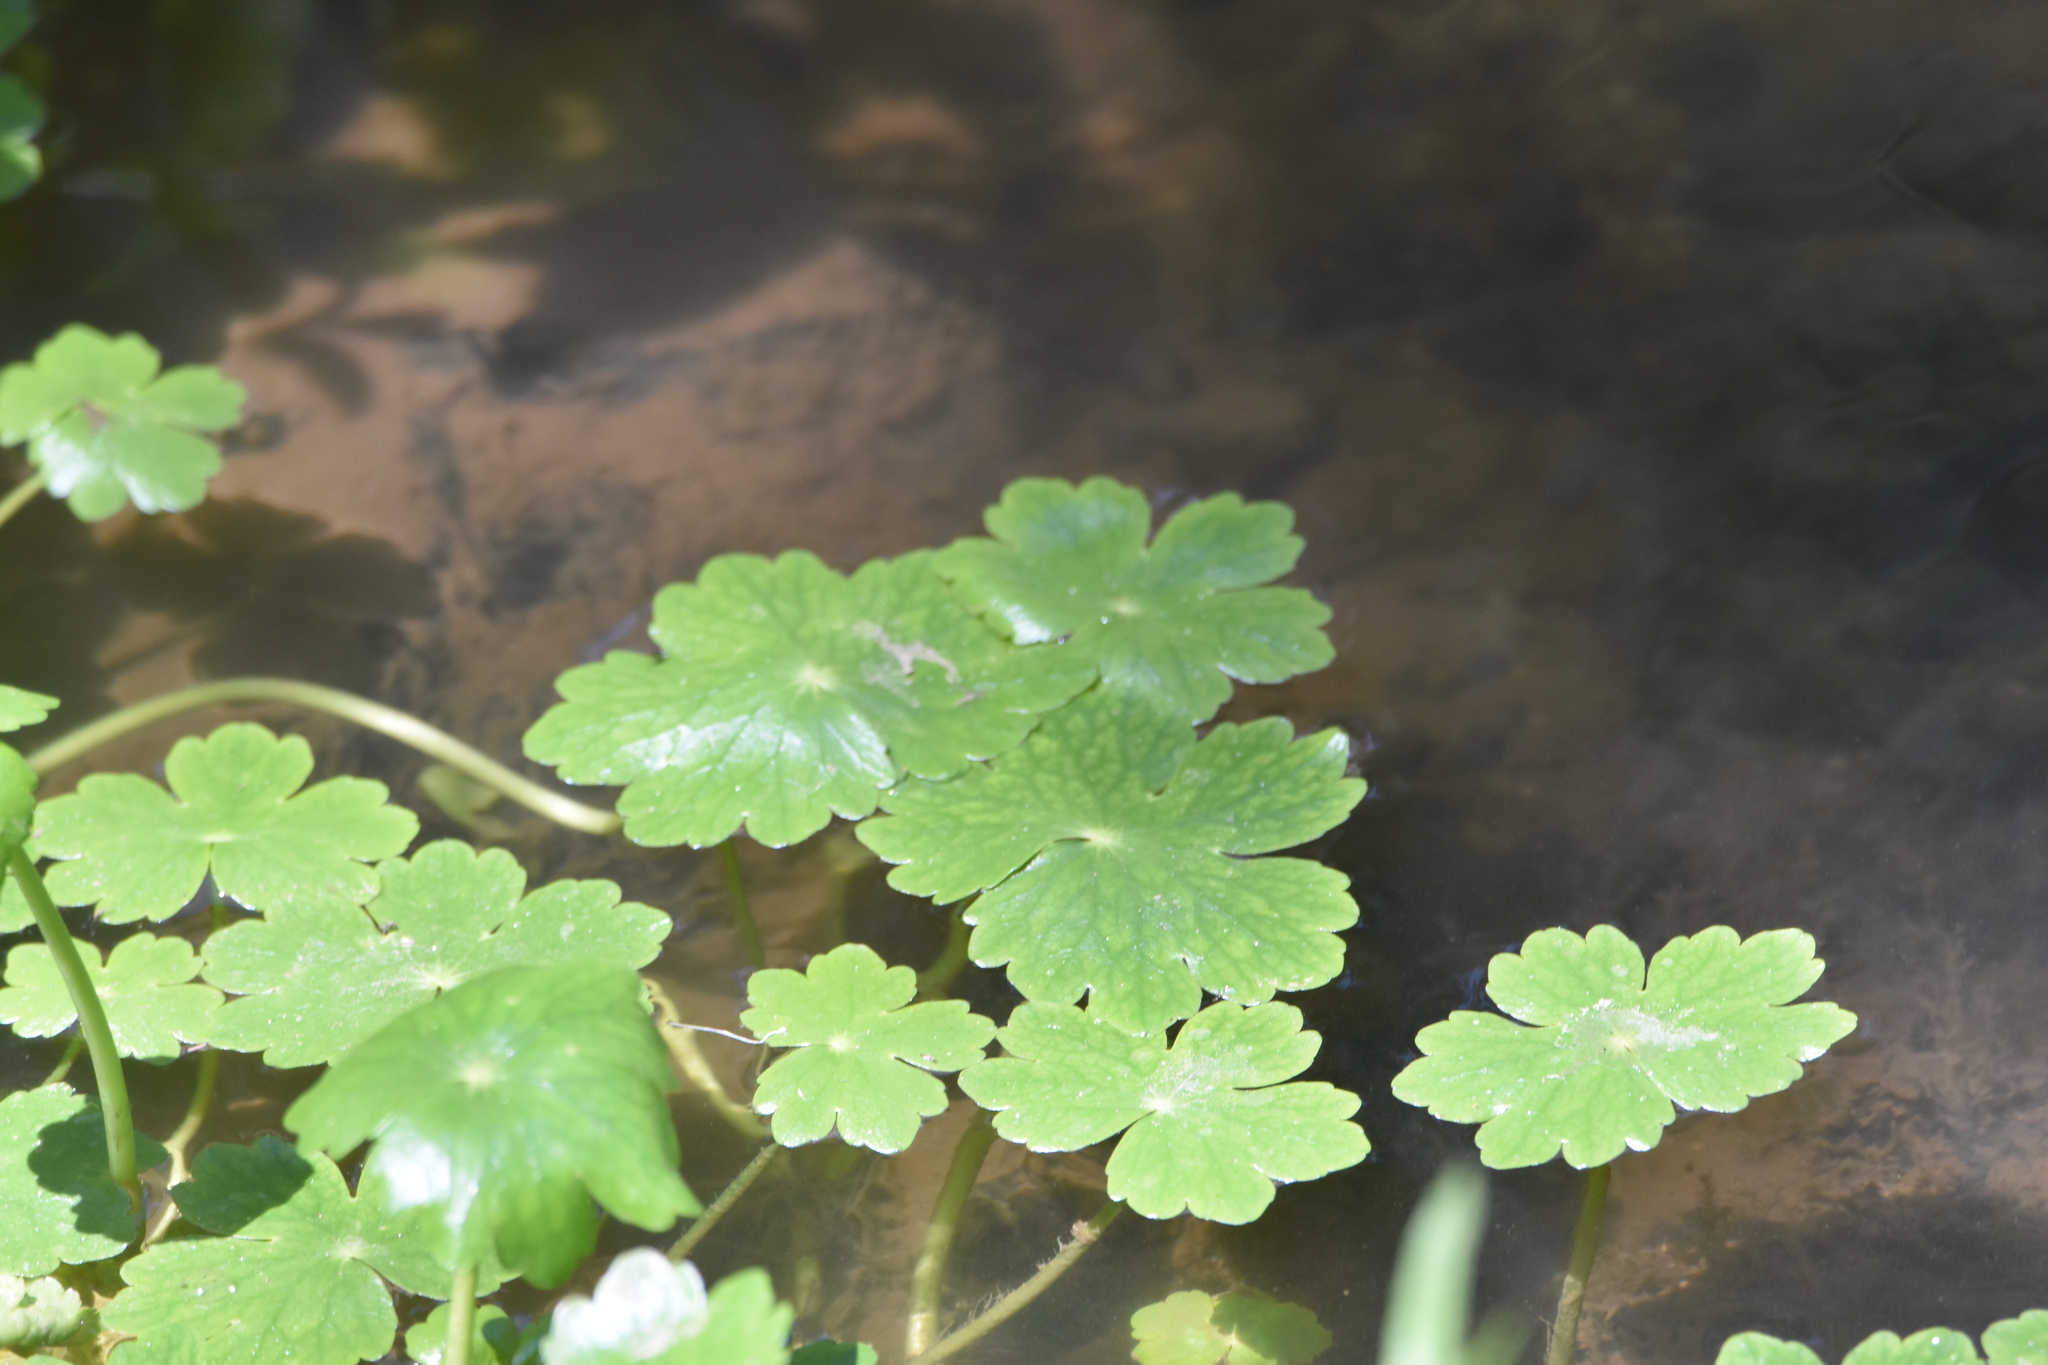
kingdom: Plantae
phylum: Tracheophyta
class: Magnoliopsida
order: Apiales
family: Araliaceae
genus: Hydrocotyle
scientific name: Hydrocotyle ranunculoides
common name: Floating pennywort
